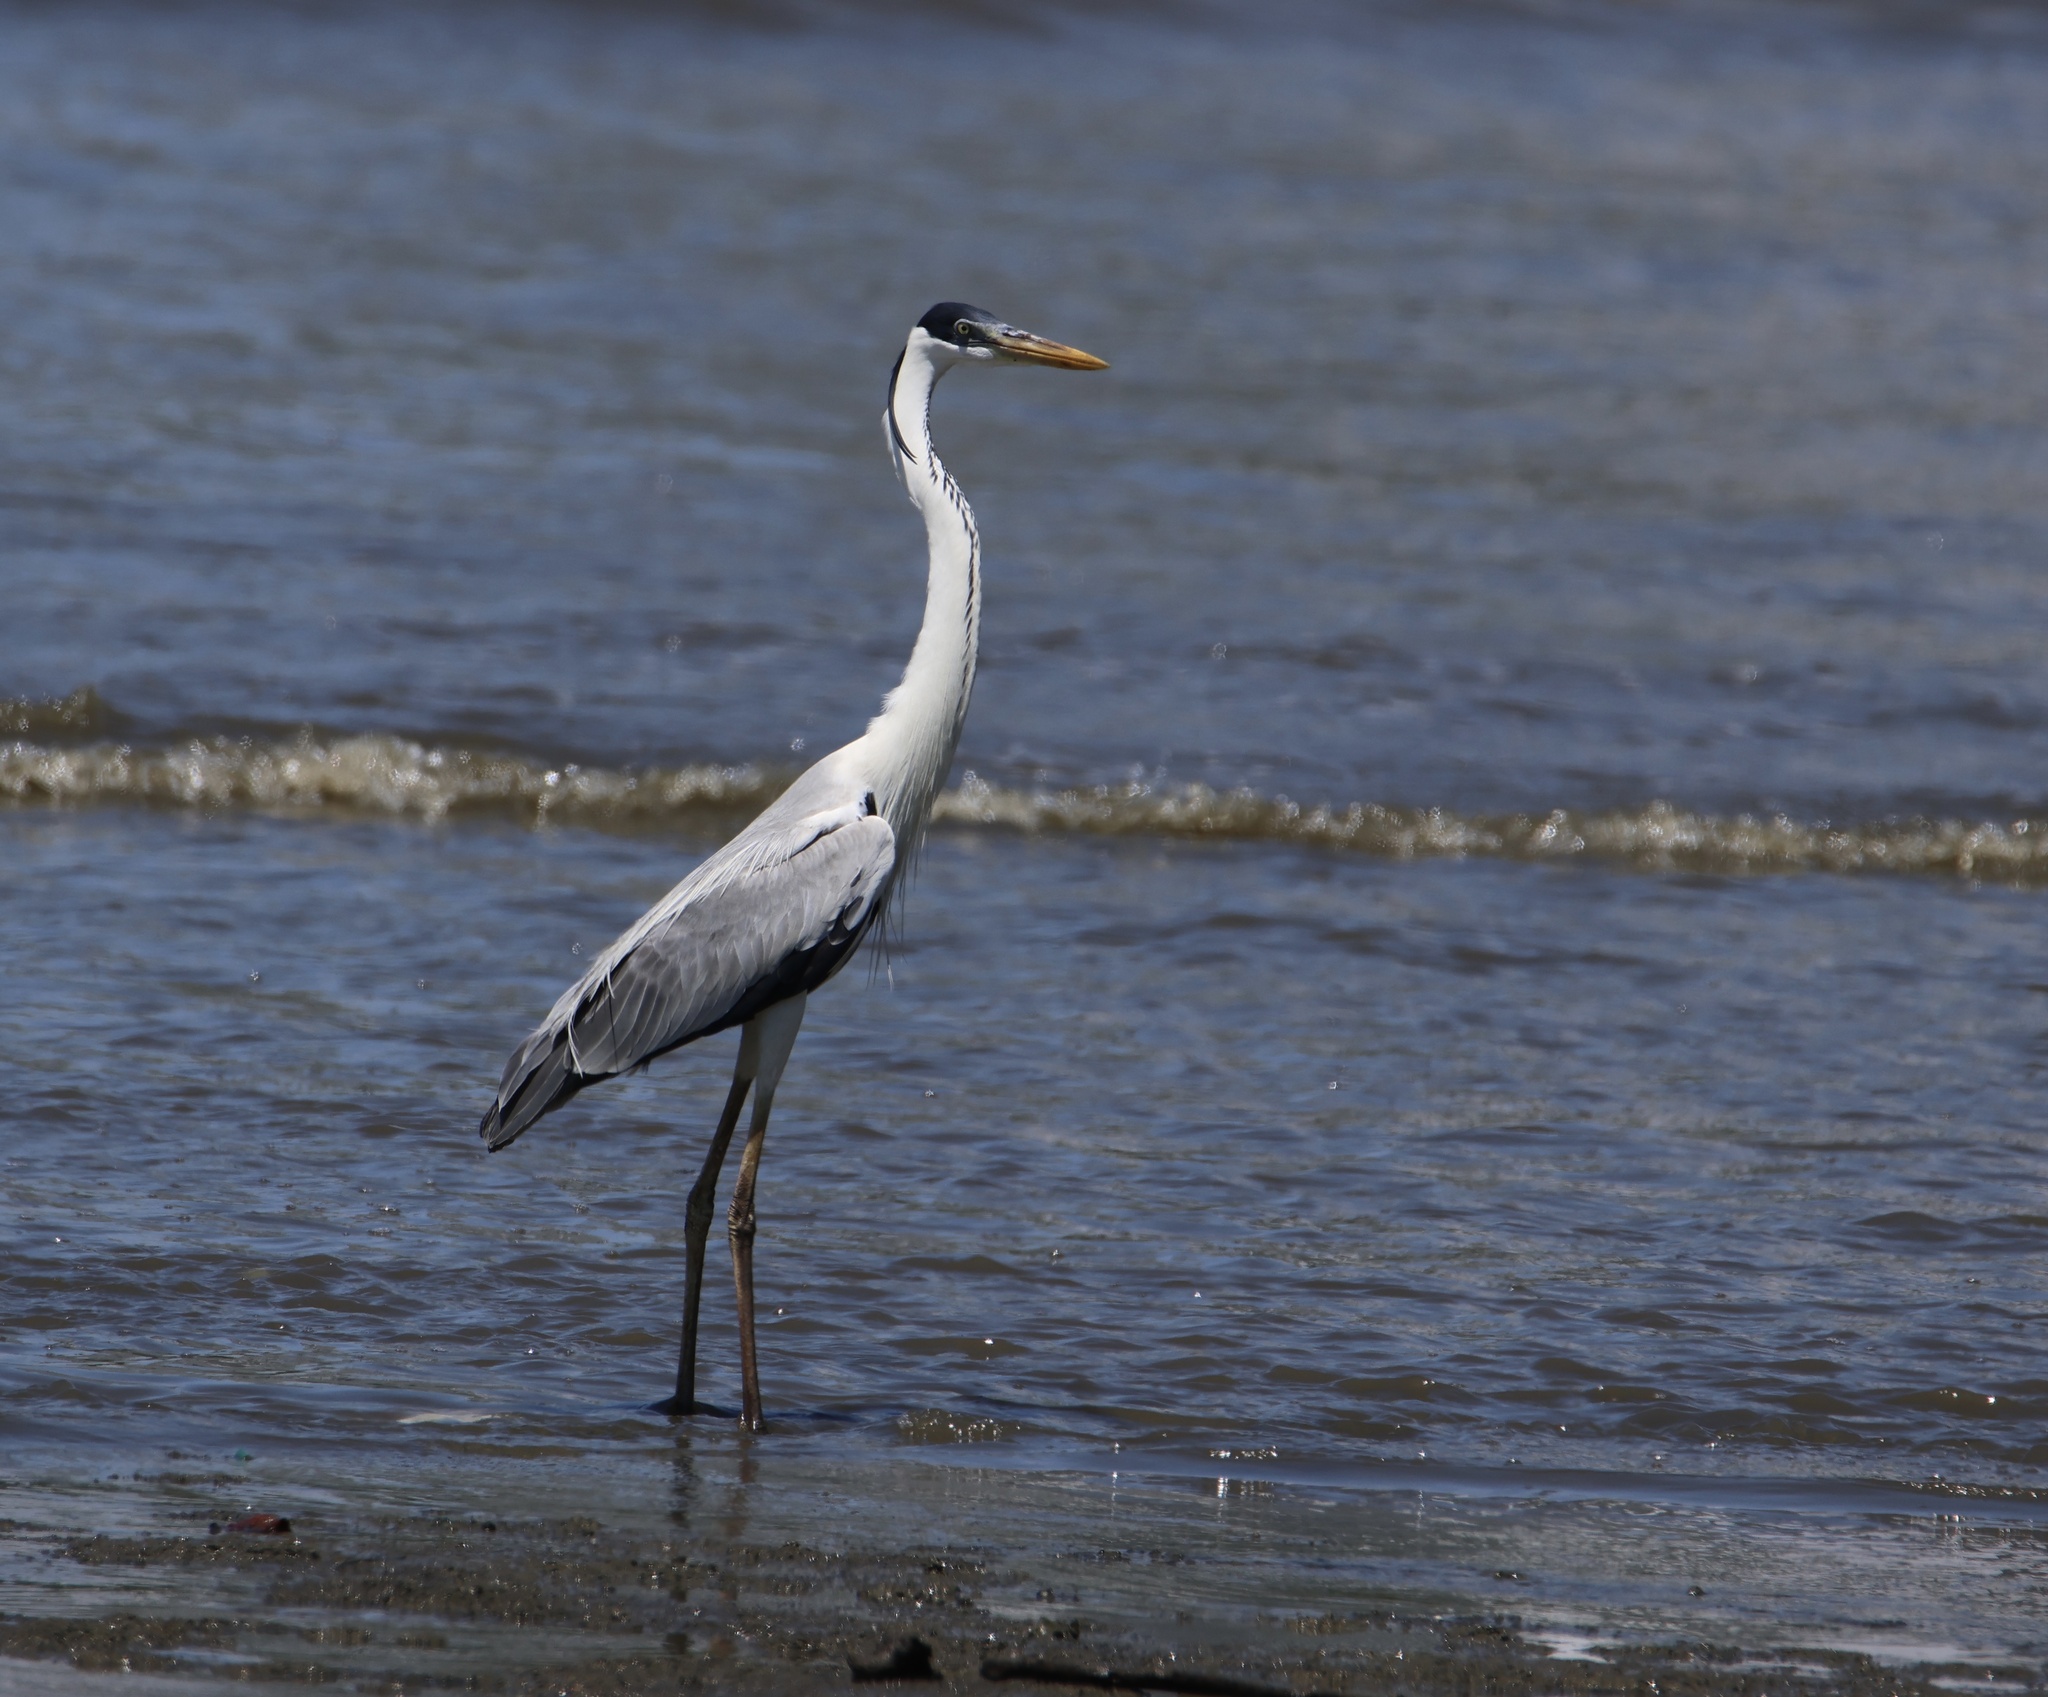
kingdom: Animalia
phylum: Chordata
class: Aves
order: Pelecaniformes
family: Ardeidae
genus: Ardea
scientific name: Ardea cocoi
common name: Cocoi heron
